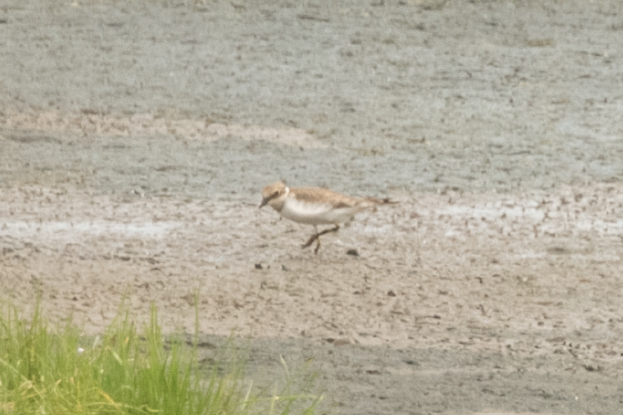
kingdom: Animalia
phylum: Chordata
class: Aves
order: Charadriiformes
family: Charadriidae
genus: Charadrius
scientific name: Charadrius dubius
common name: Little ringed plover
